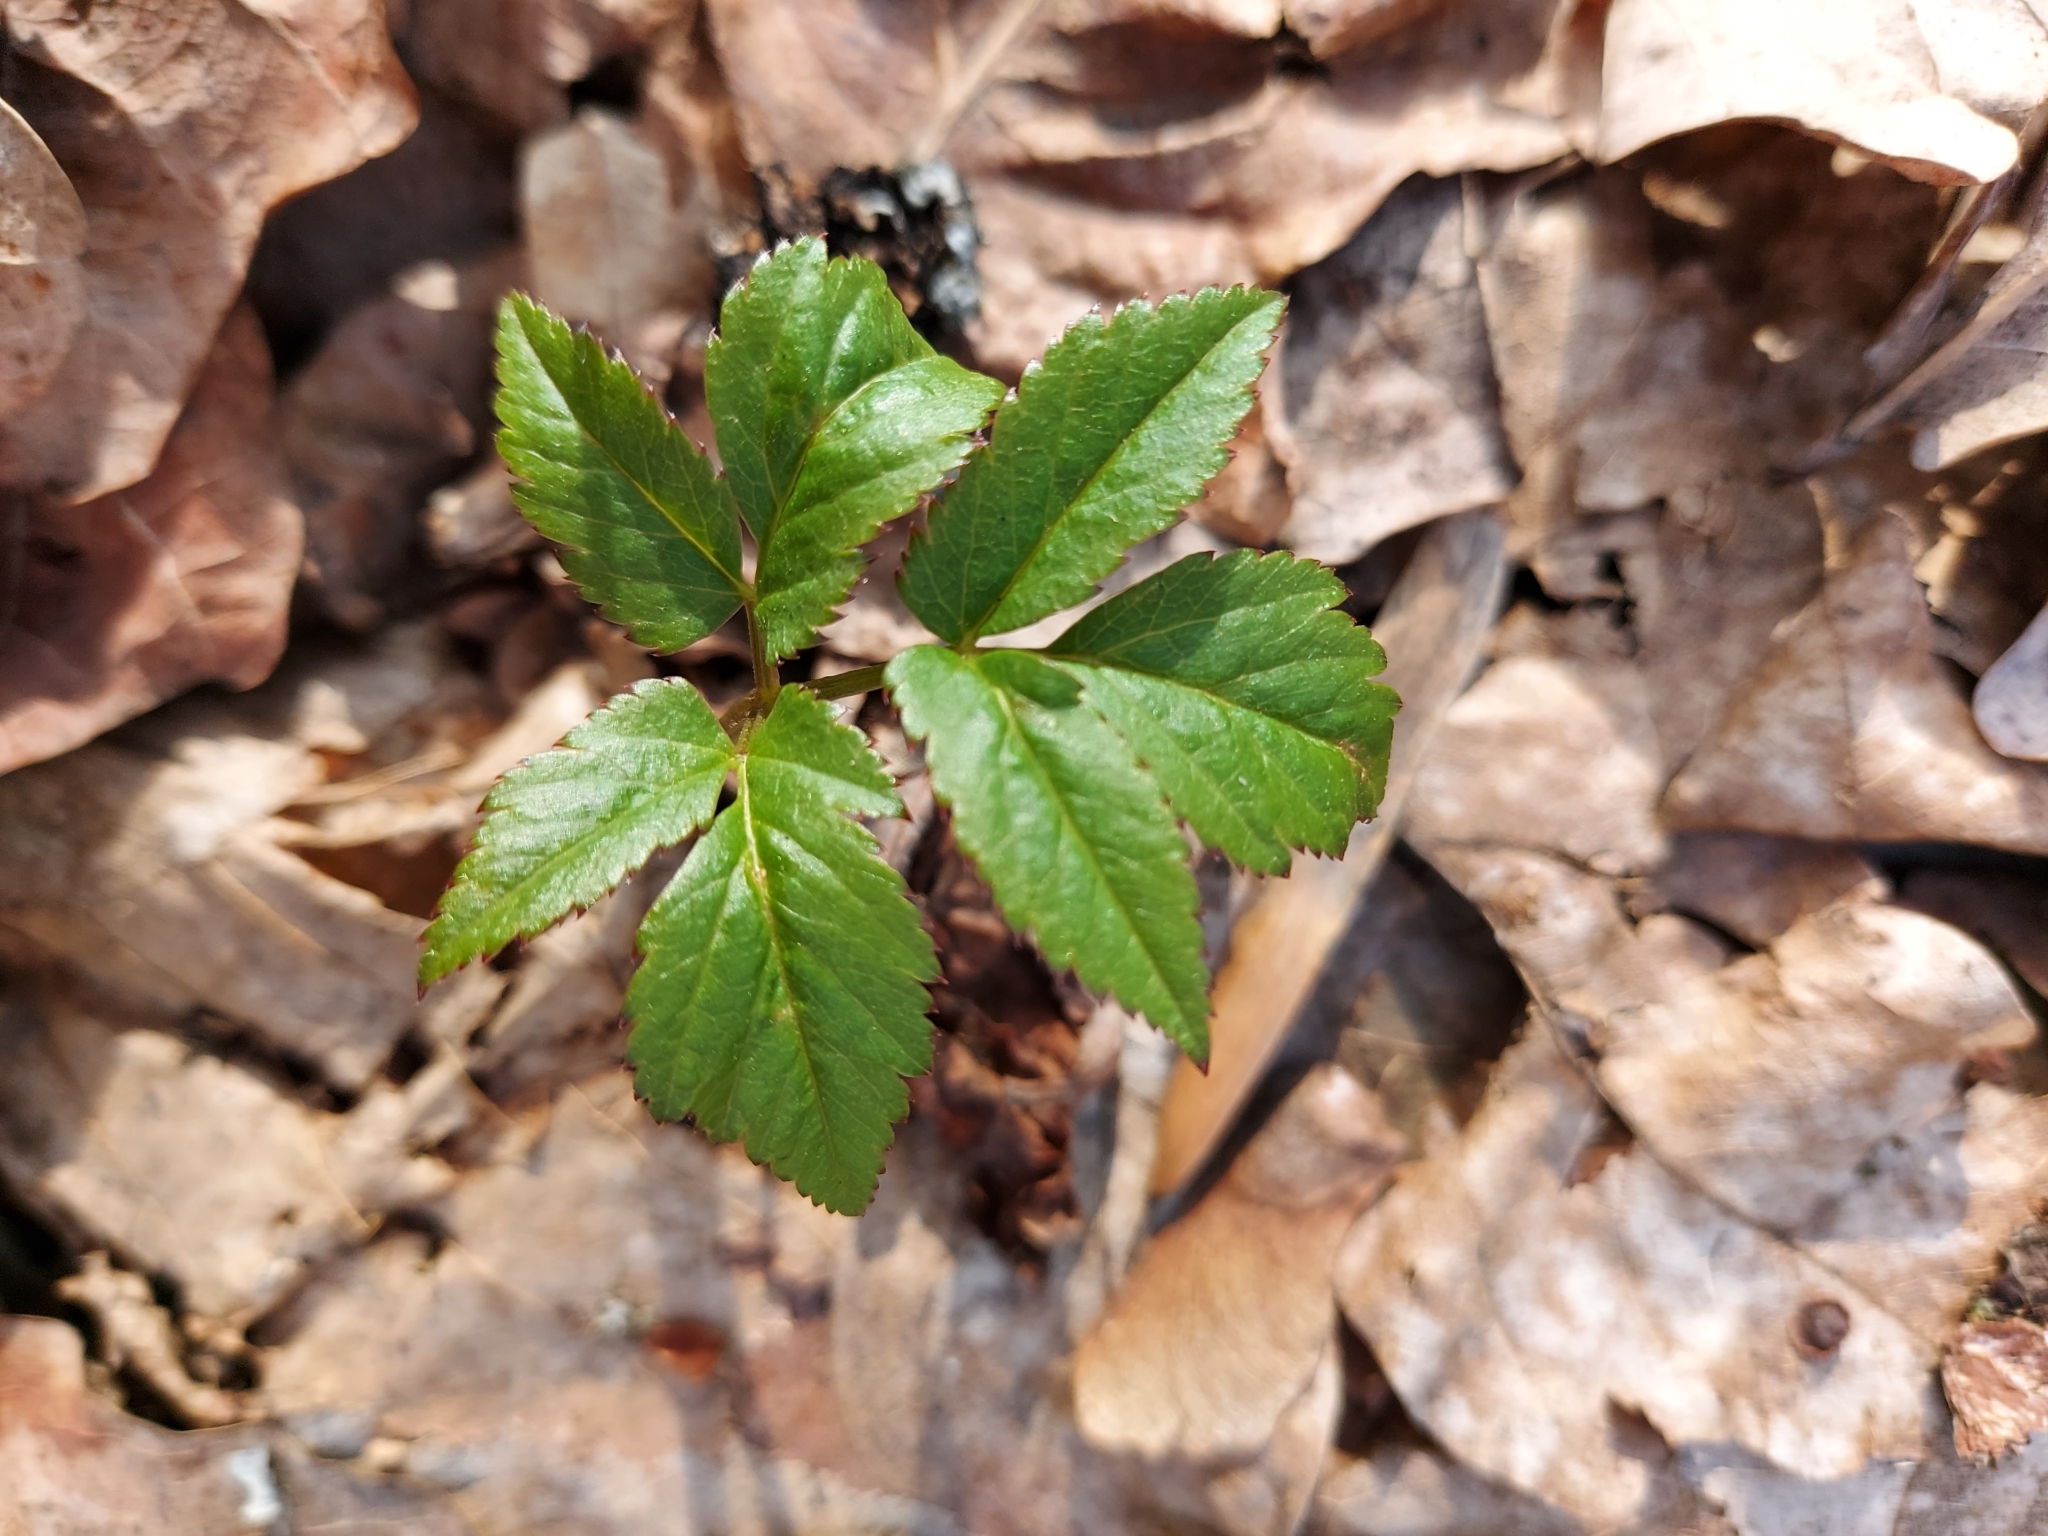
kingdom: Plantae
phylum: Tracheophyta
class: Magnoliopsida
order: Apiales
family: Apiaceae
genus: Aegopodium
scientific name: Aegopodium podagraria
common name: Ground-elder
